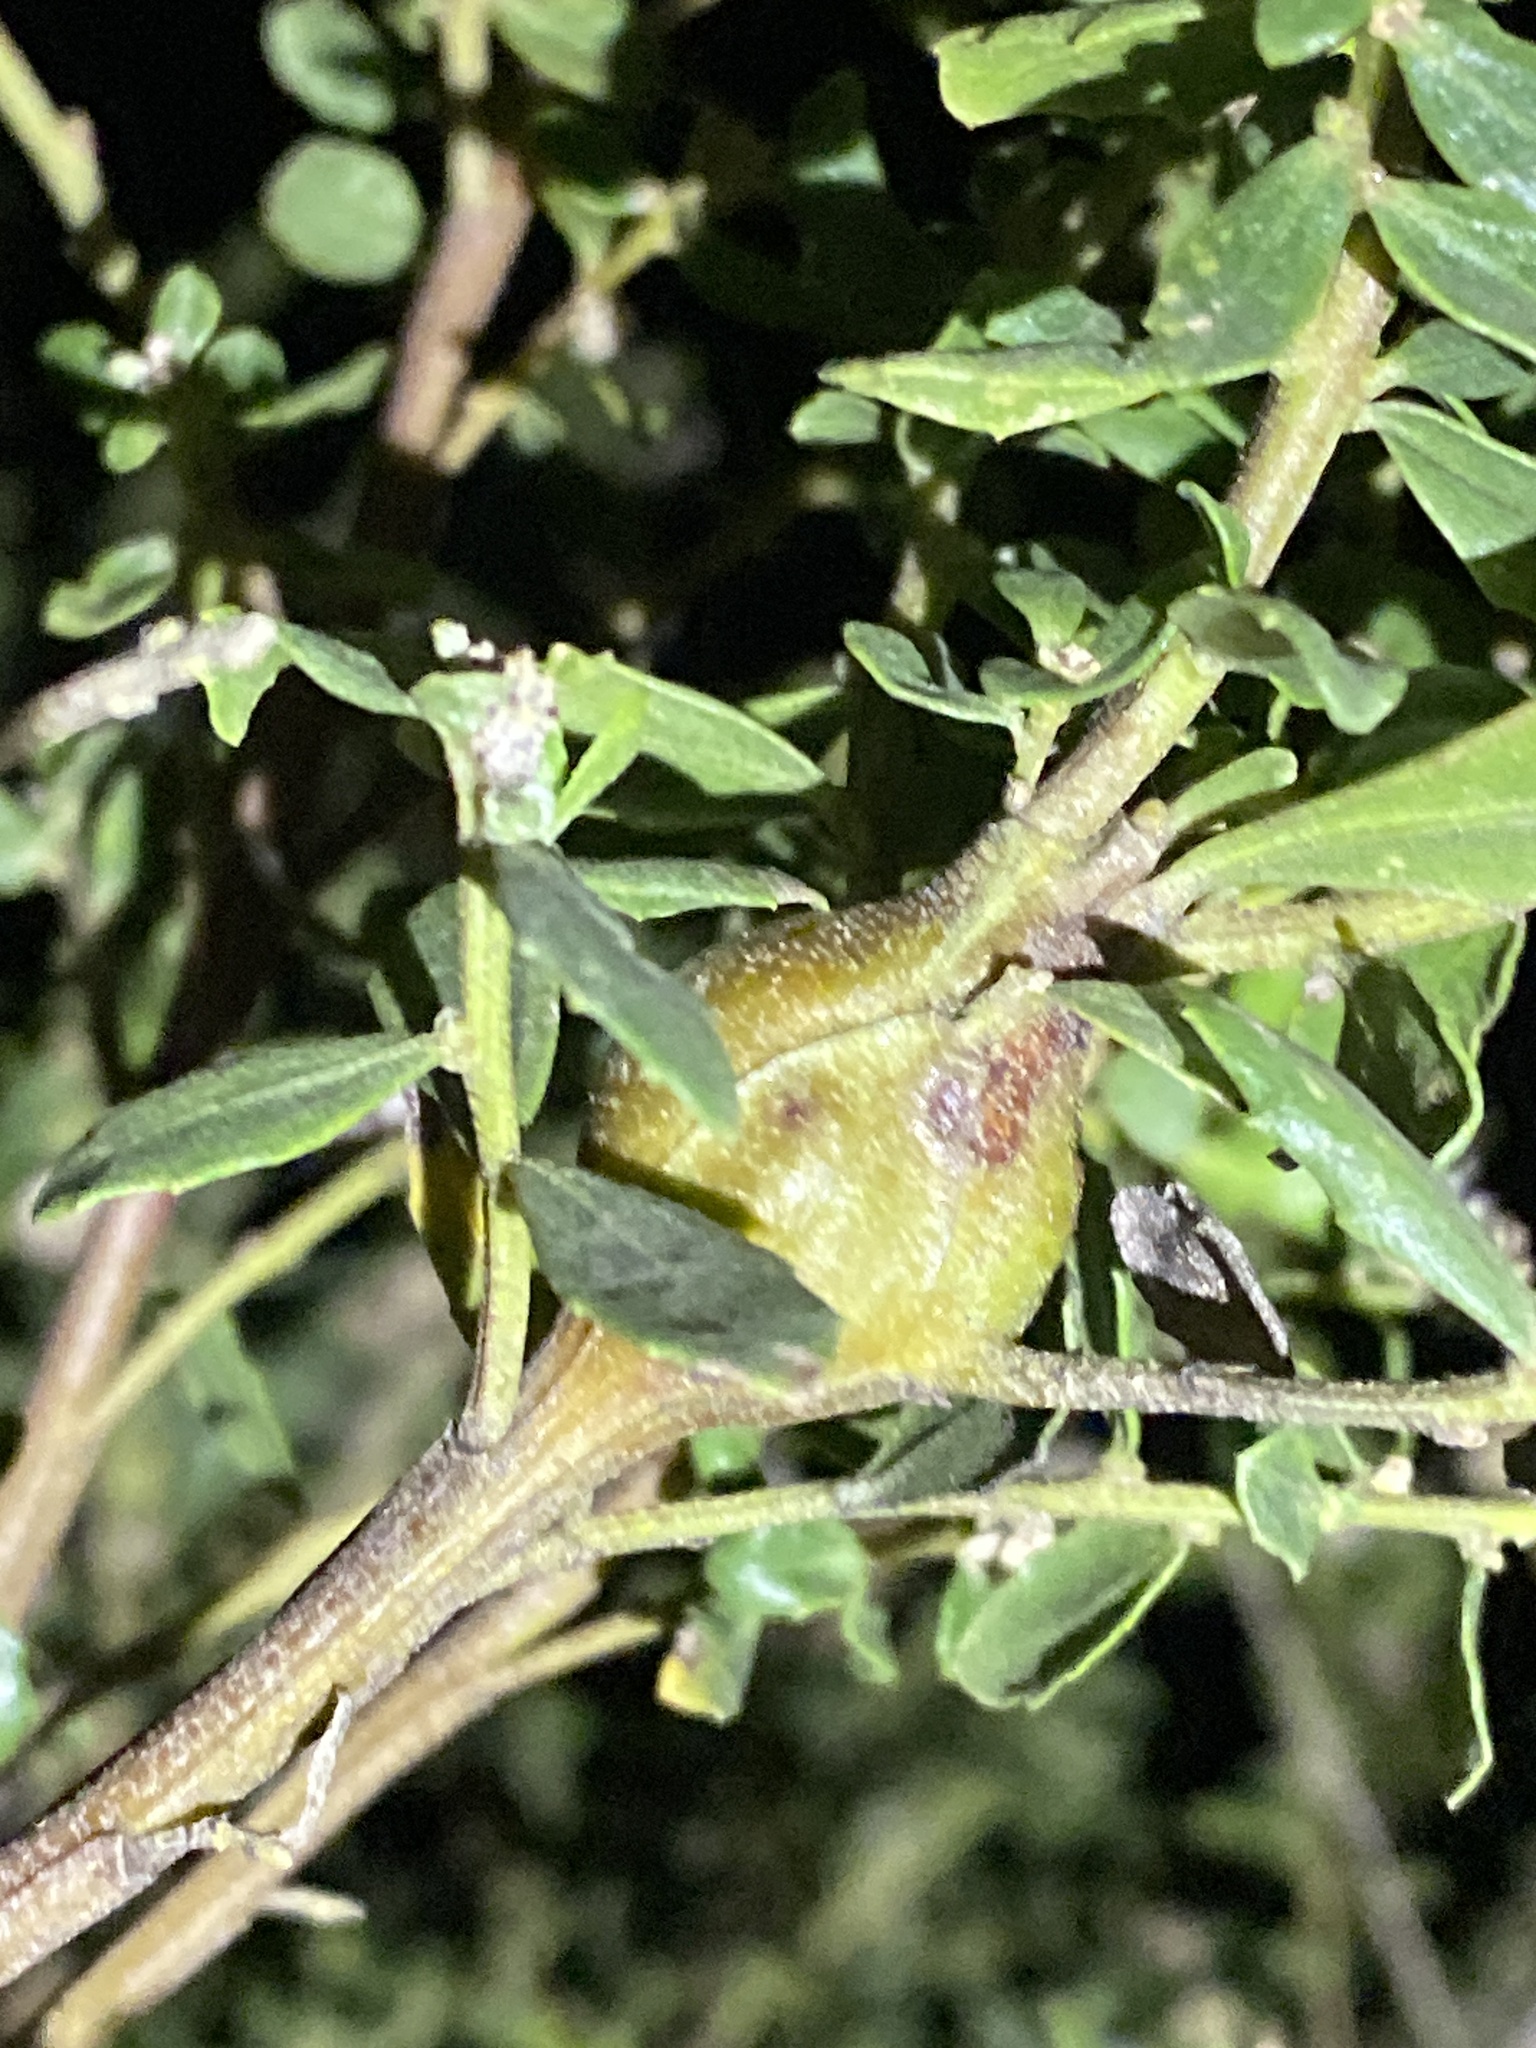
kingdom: Animalia
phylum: Arthropoda
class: Insecta
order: Lepidoptera
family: Gelechiidae
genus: Gnorimoschema
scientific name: Gnorimoschema baccharisella
